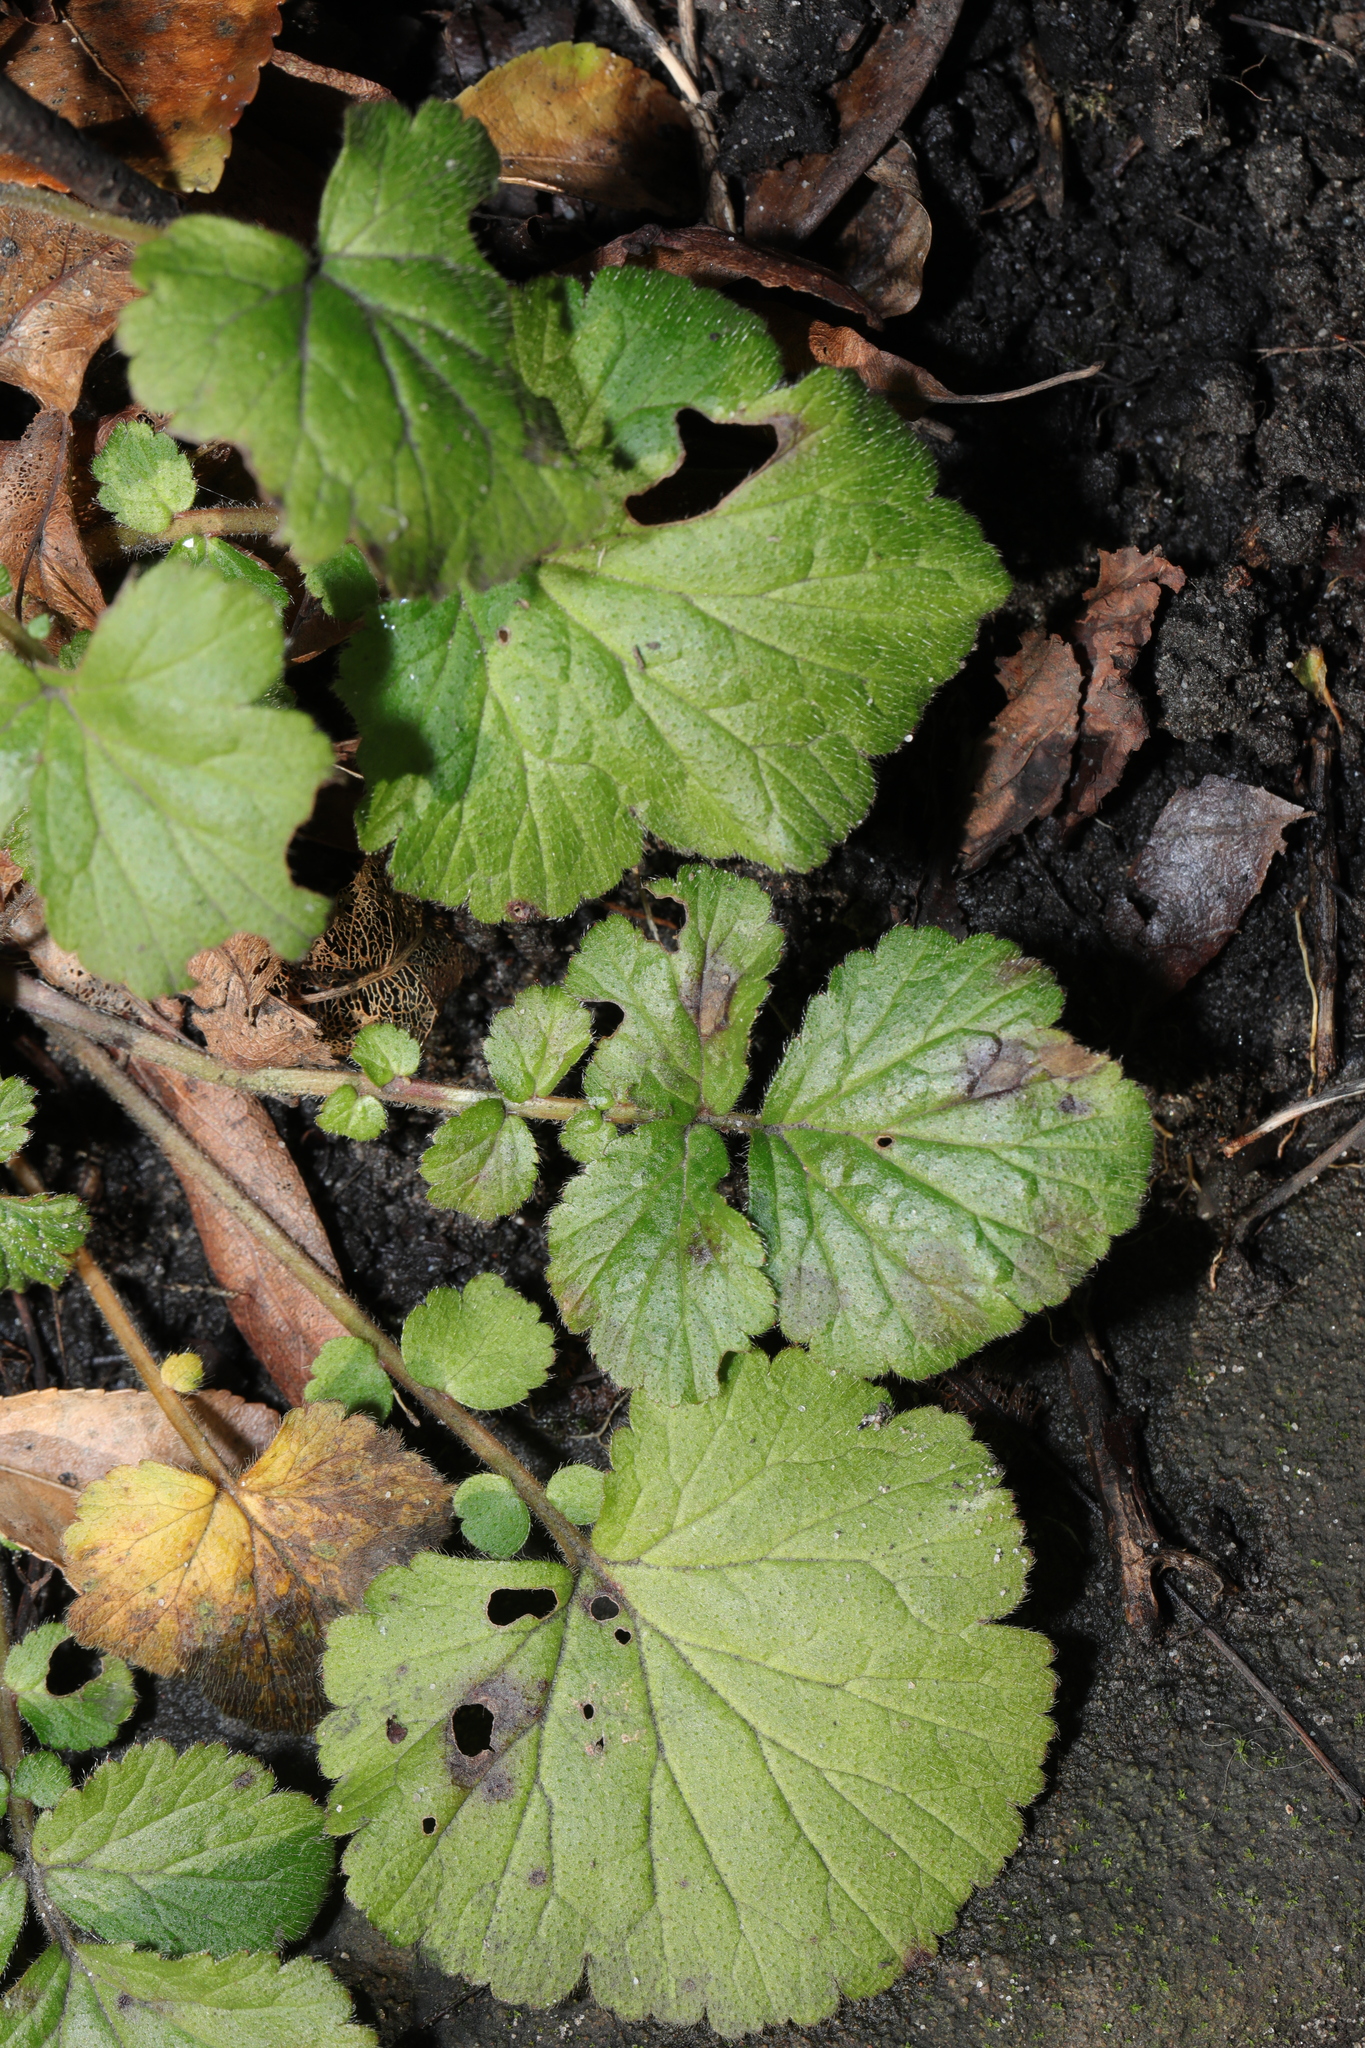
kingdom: Plantae
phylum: Tracheophyta
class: Magnoliopsida
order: Rosales
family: Rosaceae
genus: Geum
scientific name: Geum urbanum
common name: Wood avens
